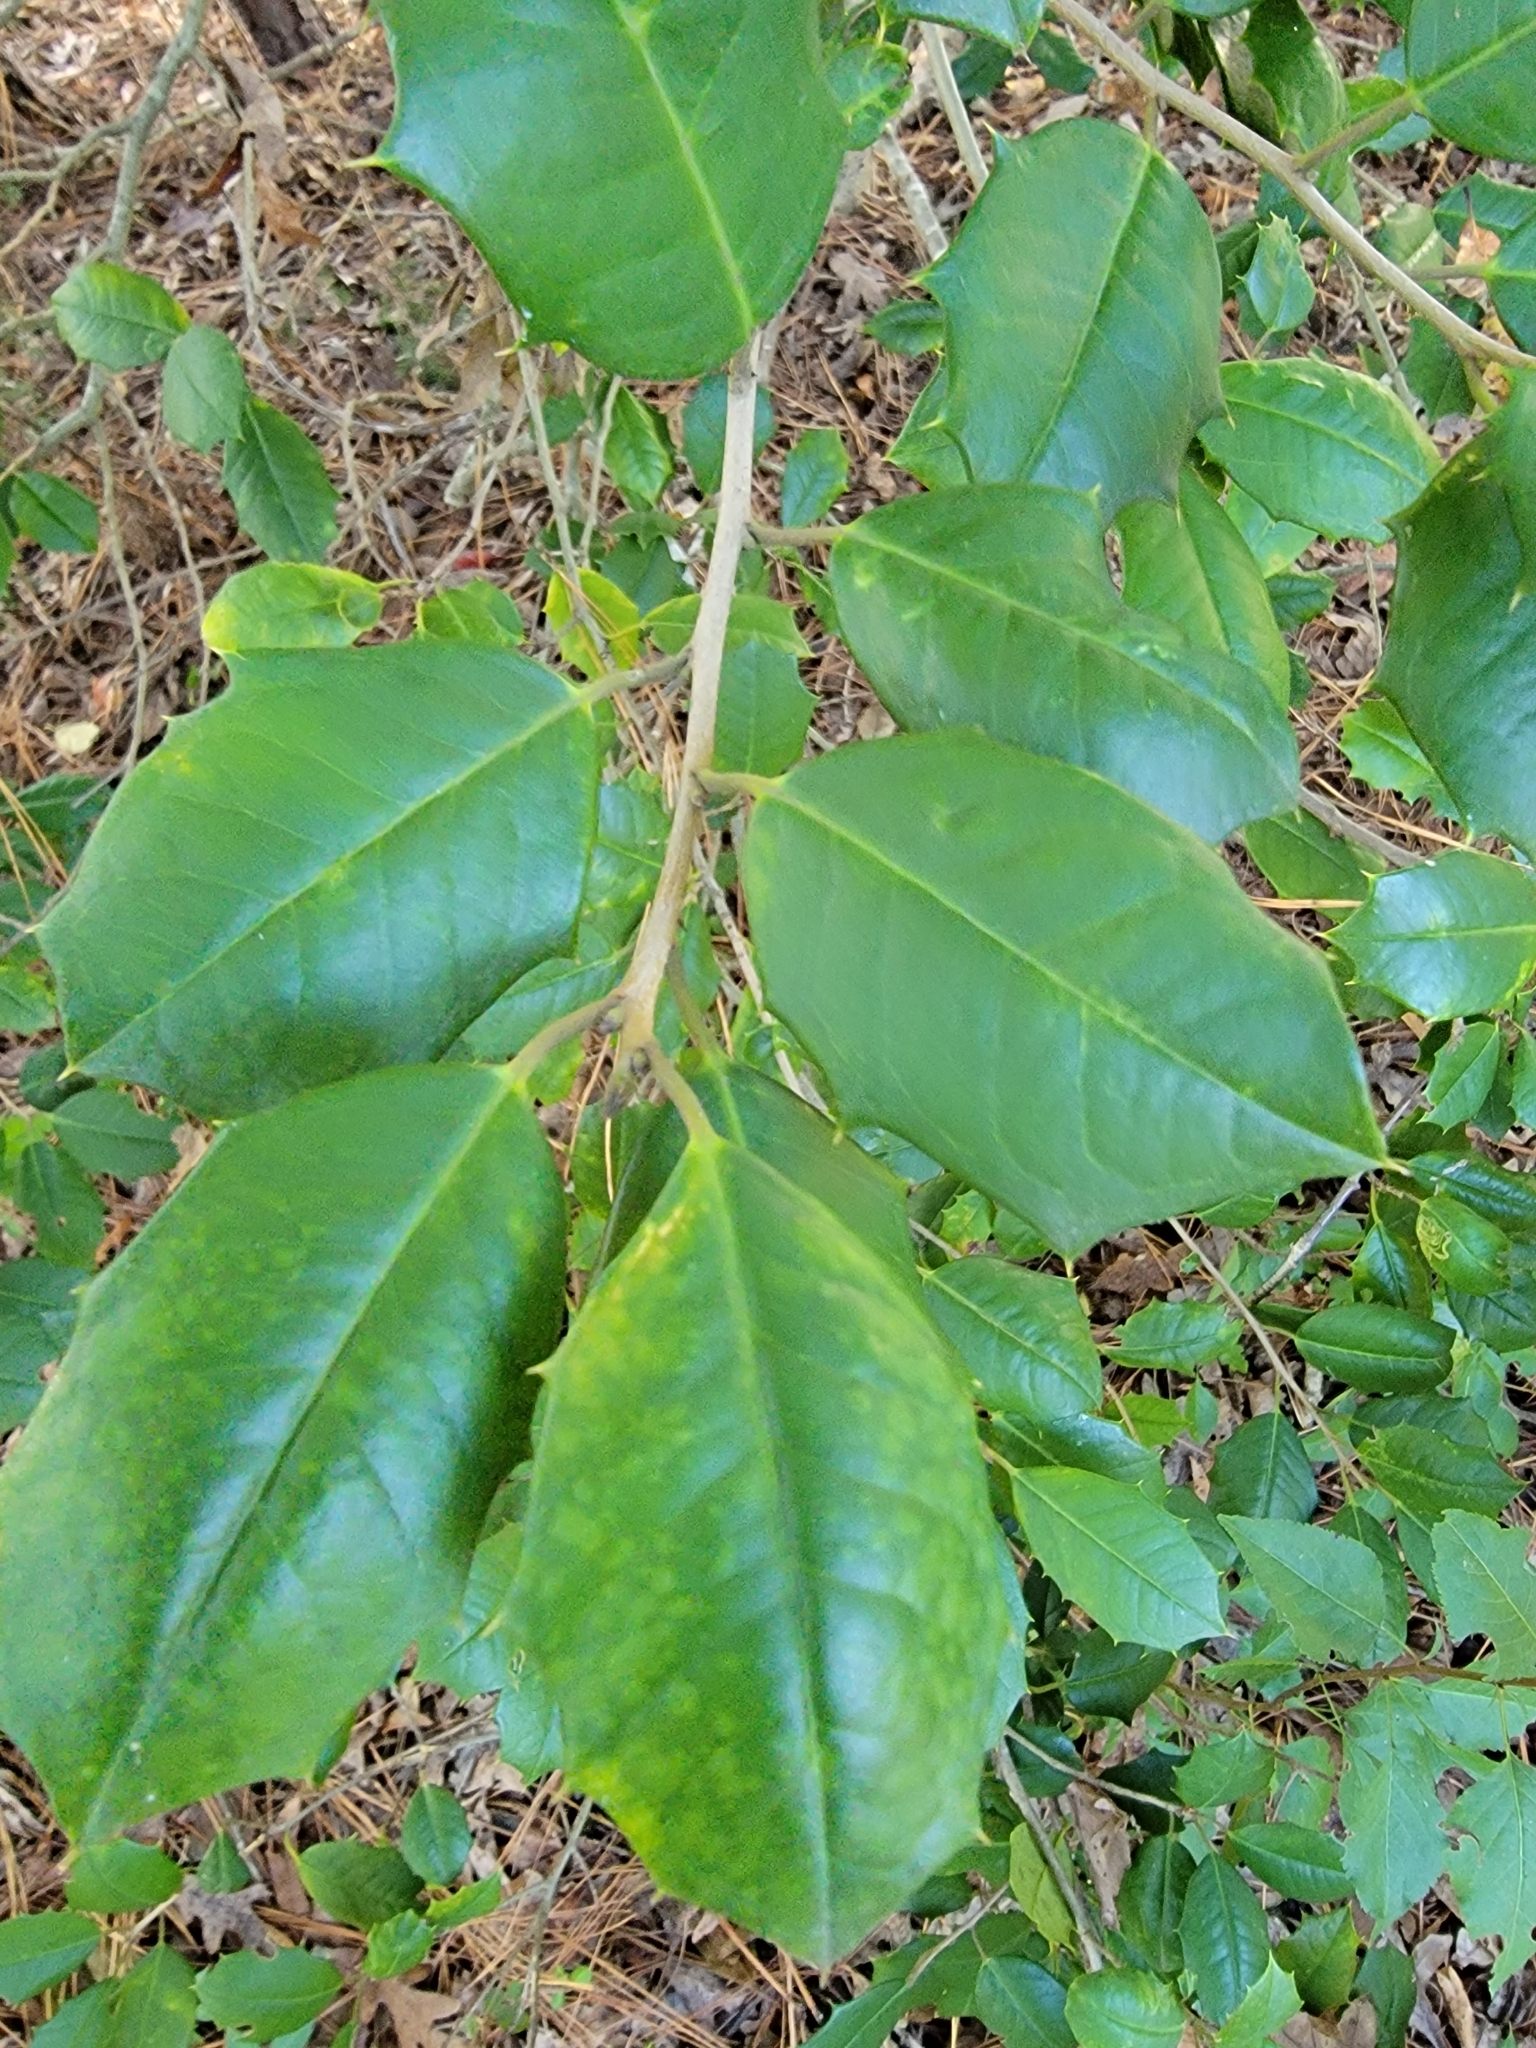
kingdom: Plantae
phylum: Tracheophyta
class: Magnoliopsida
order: Aquifoliales
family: Aquifoliaceae
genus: Ilex
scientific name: Ilex opaca
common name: American holly
